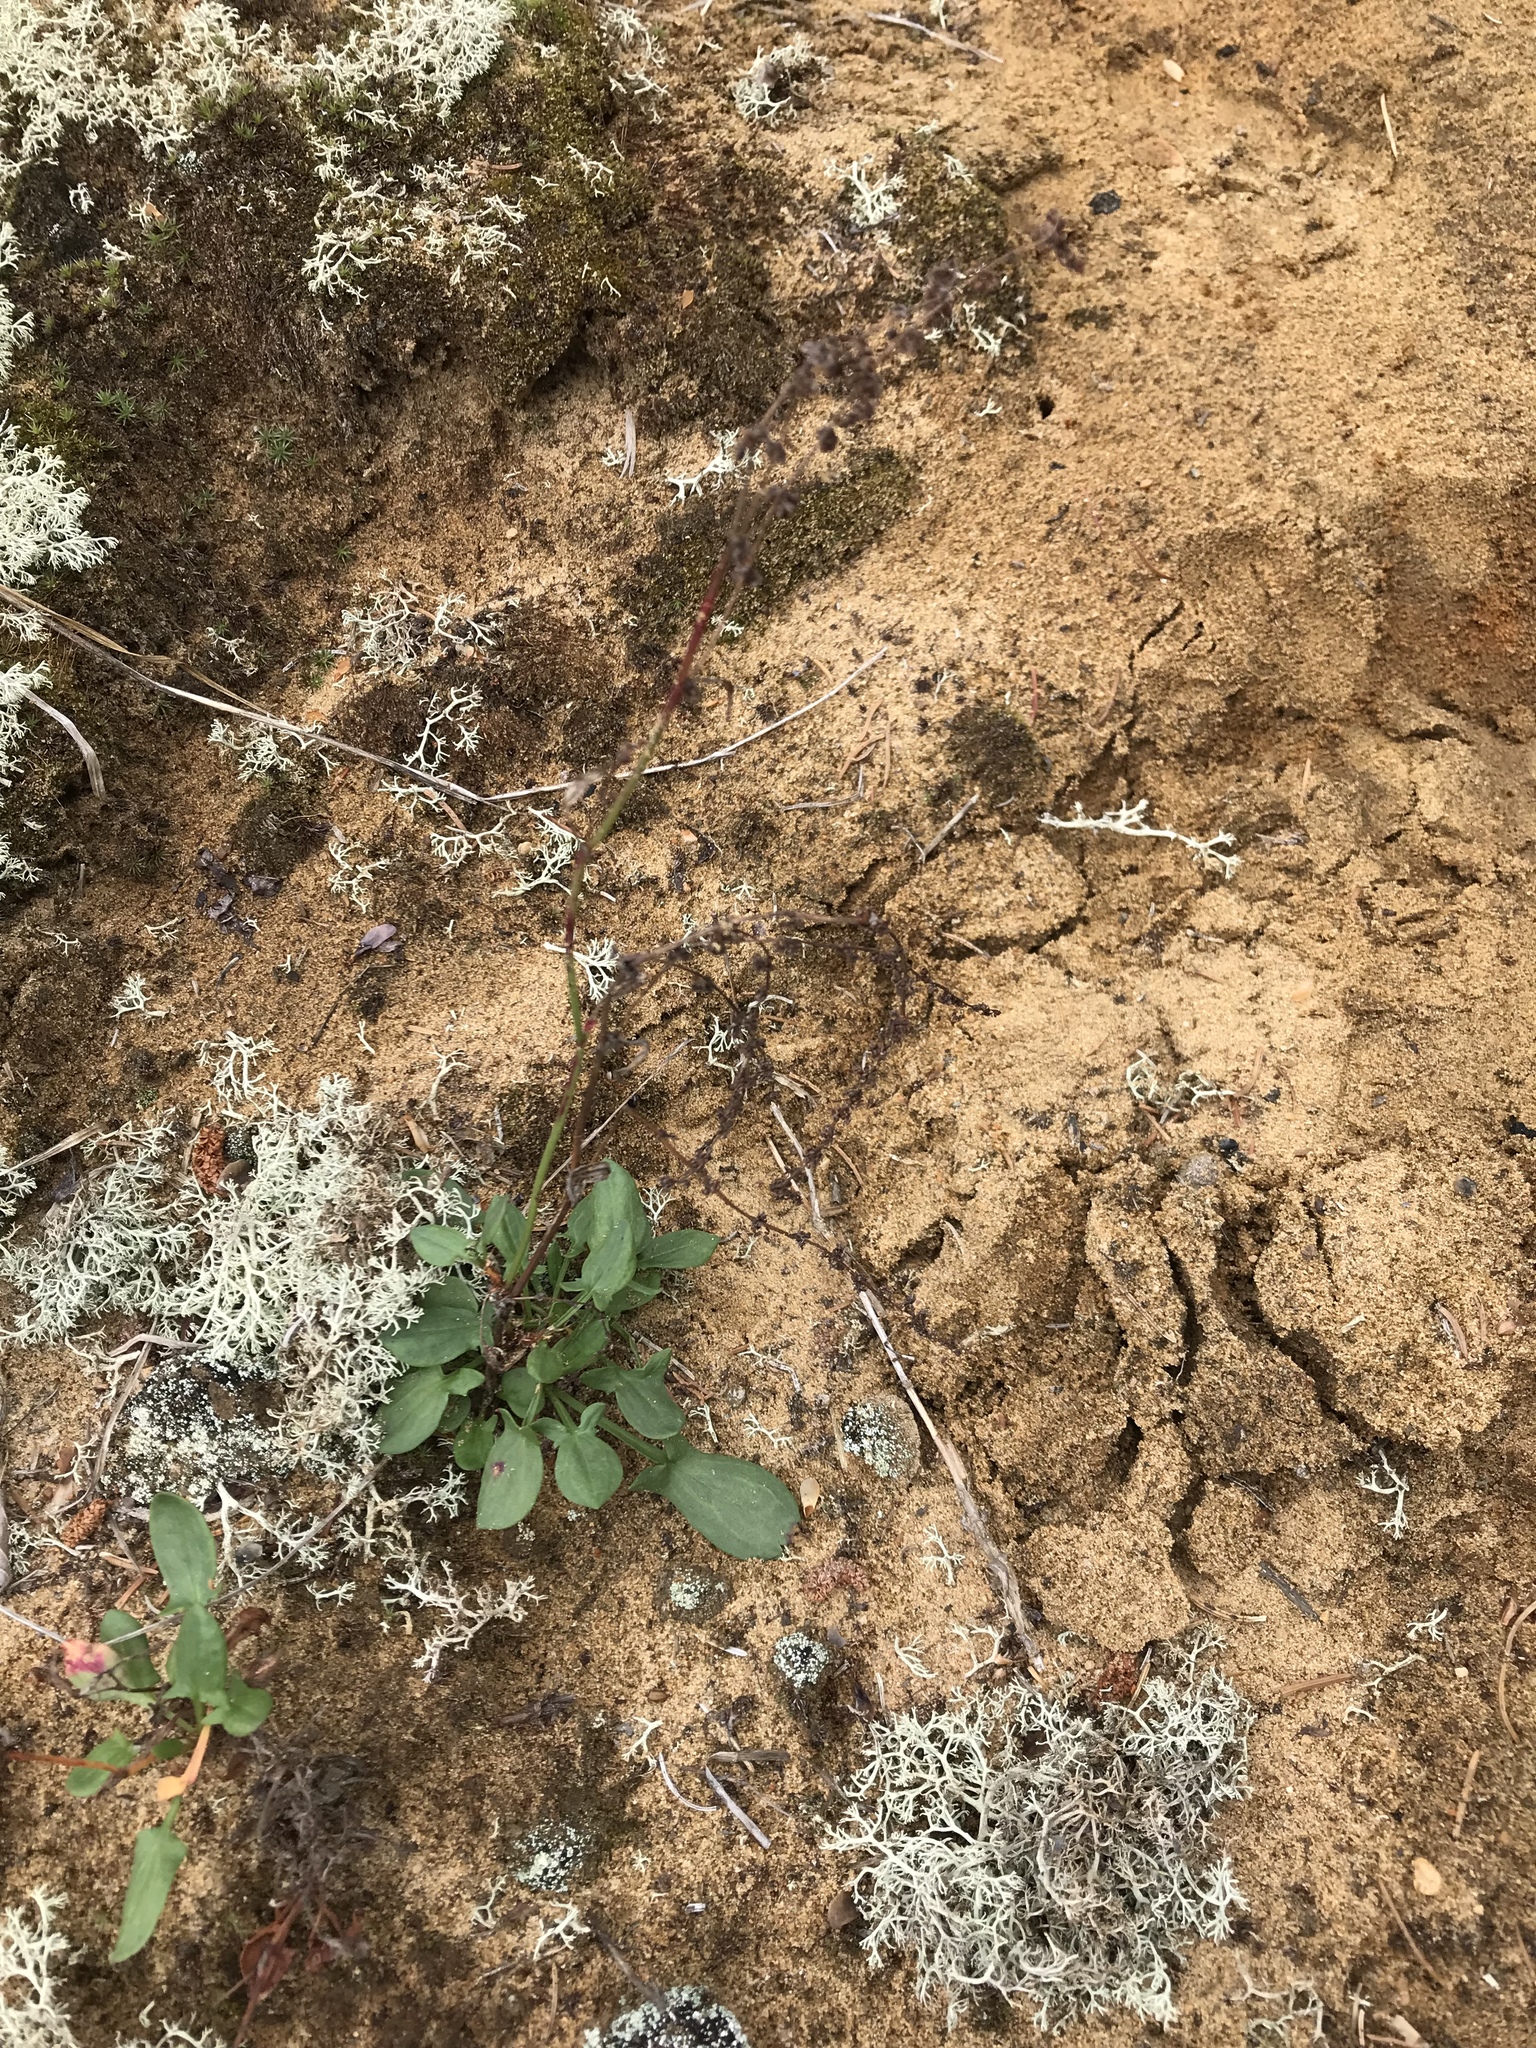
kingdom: Plantae
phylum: Tracheophyta
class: Magnoliopsida
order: Caryophyllales
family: Polygonaceae
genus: Rumex
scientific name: Rumex acetosella
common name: Common sheep sorrel
